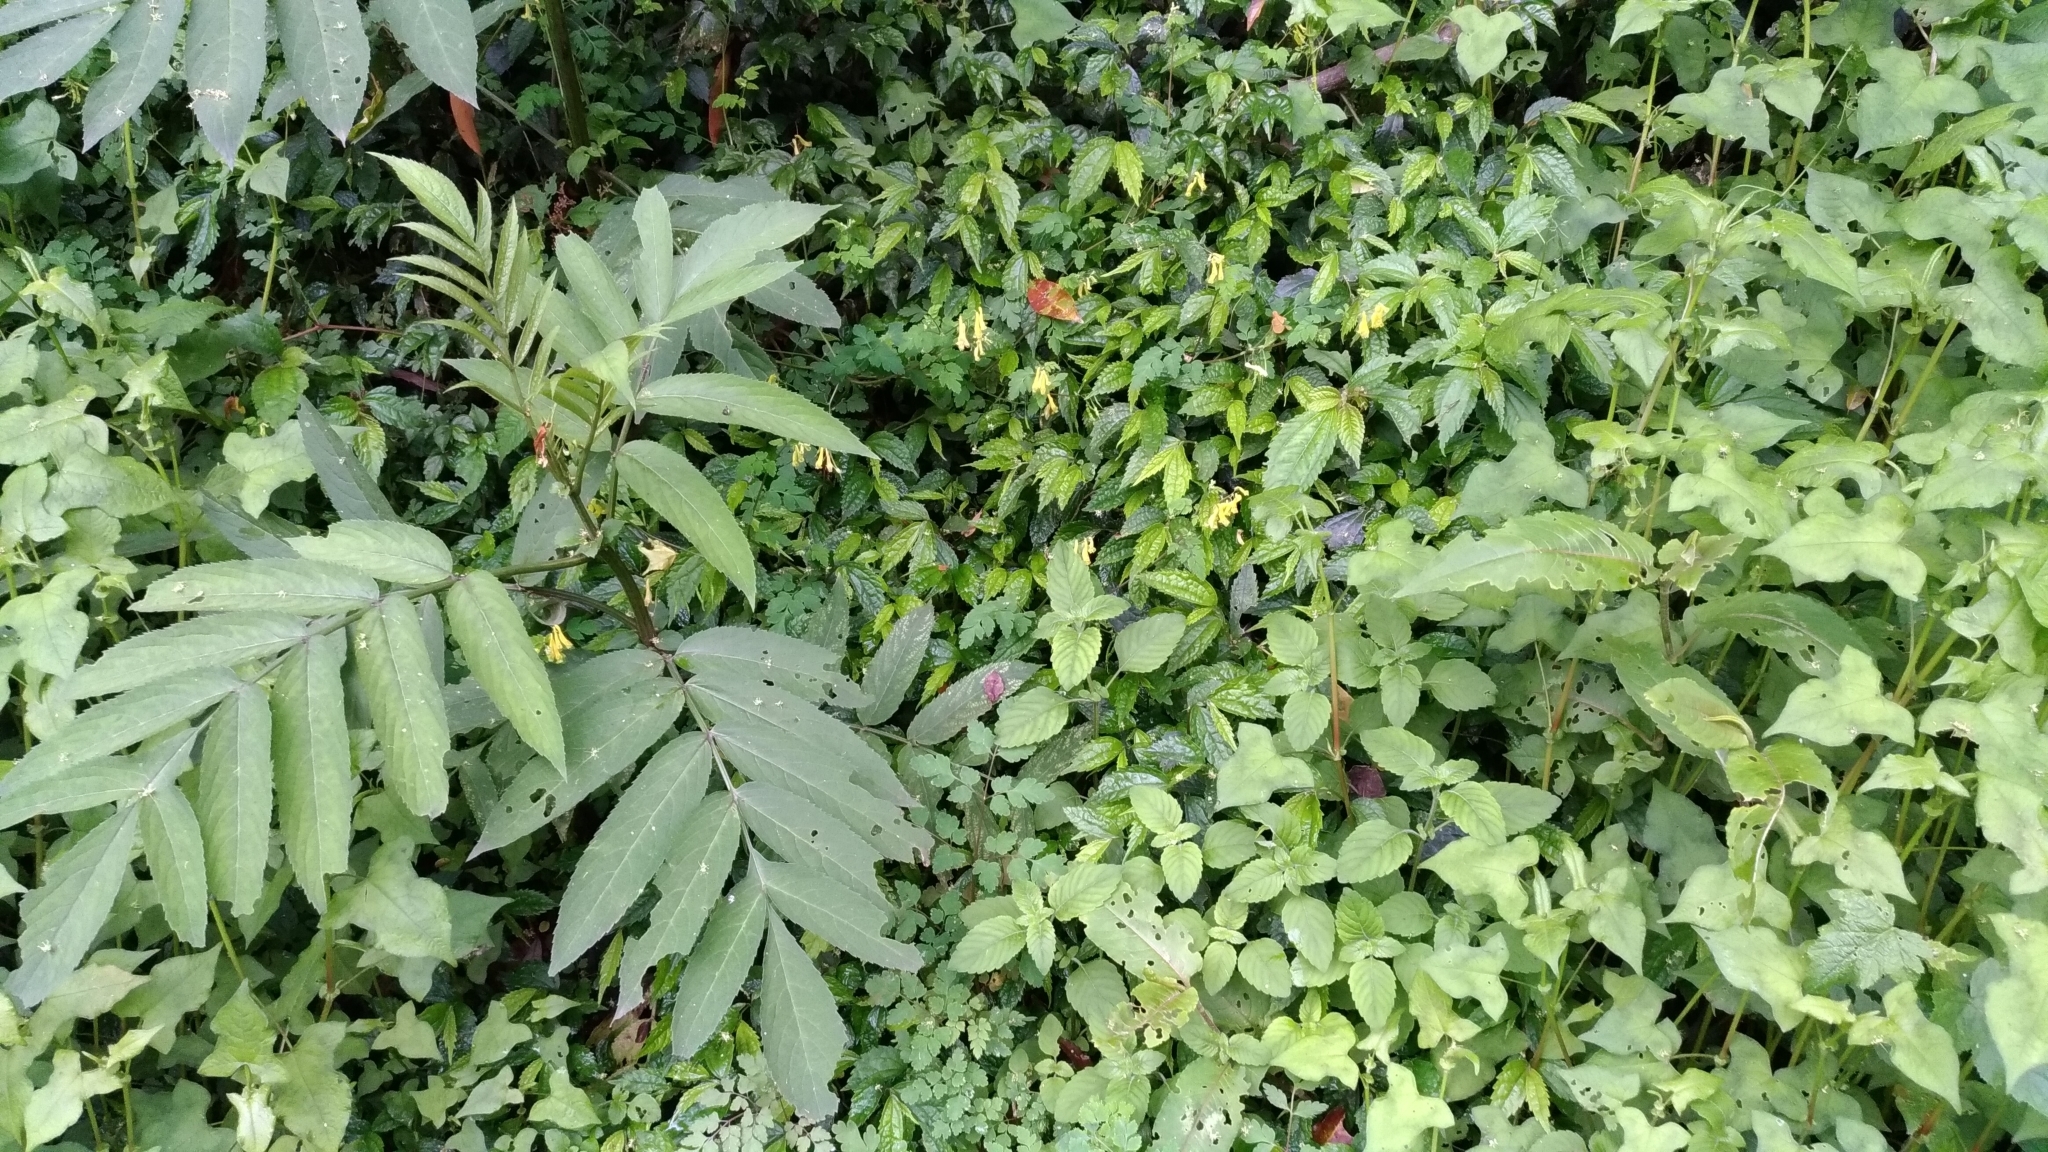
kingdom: Plantae
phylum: Tracheophyta
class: Magnoliopsida
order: Ranunculales
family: Papaveraceae
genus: Corydalis
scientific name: Corydalis pallida
